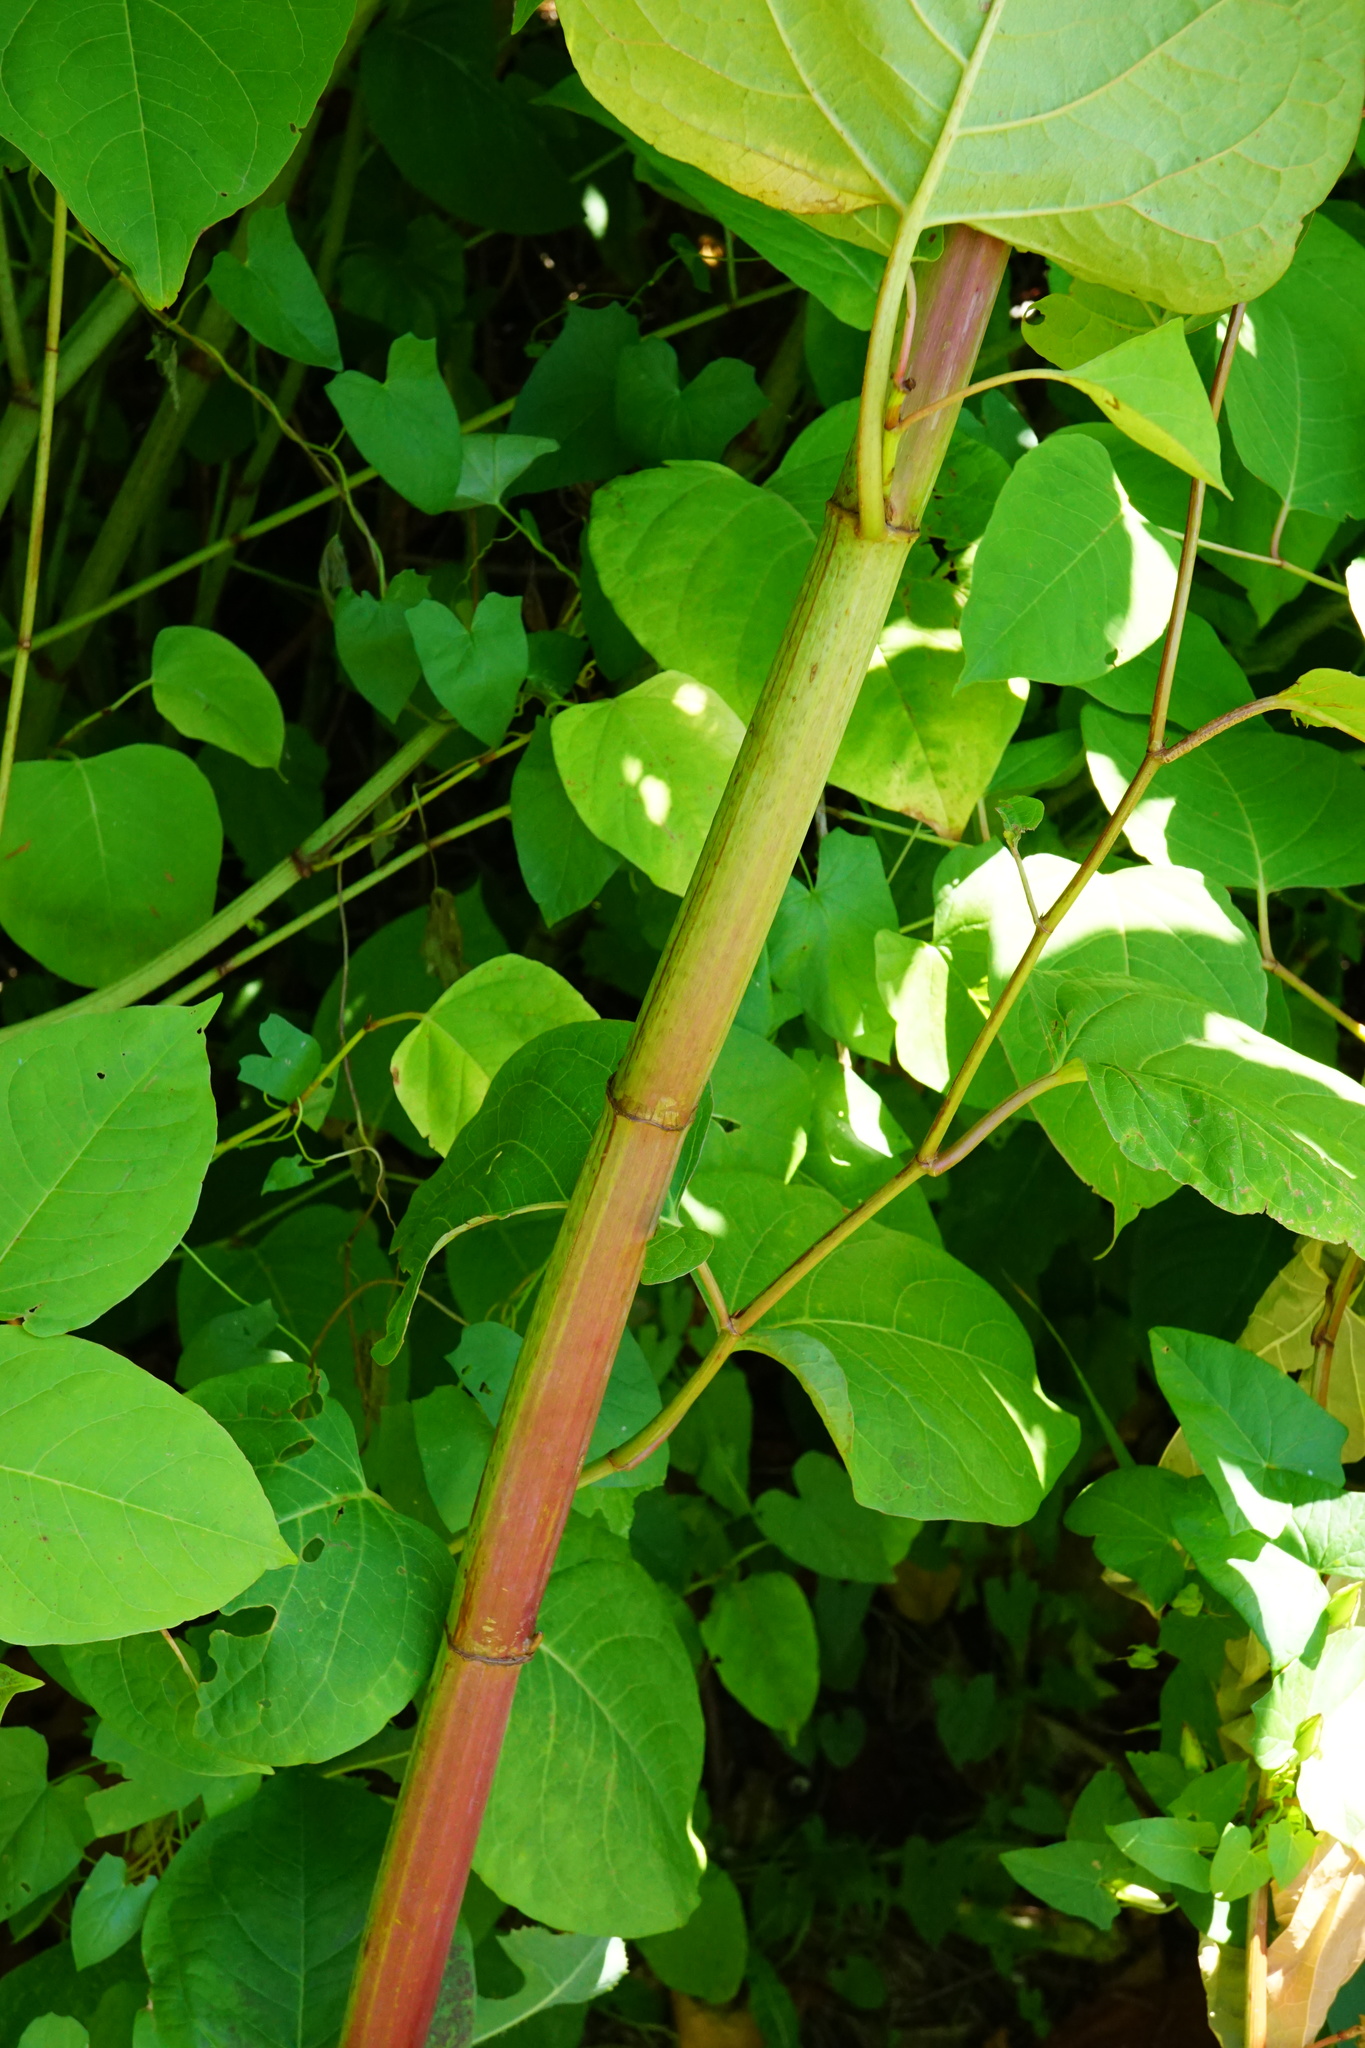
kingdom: Plantae
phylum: Tracheophyta
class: Magnoliopsida
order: Caryophyllales
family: Polygonaceae
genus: Reynoutria
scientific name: Reynoutria bohemica
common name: Bohemian knotweed
